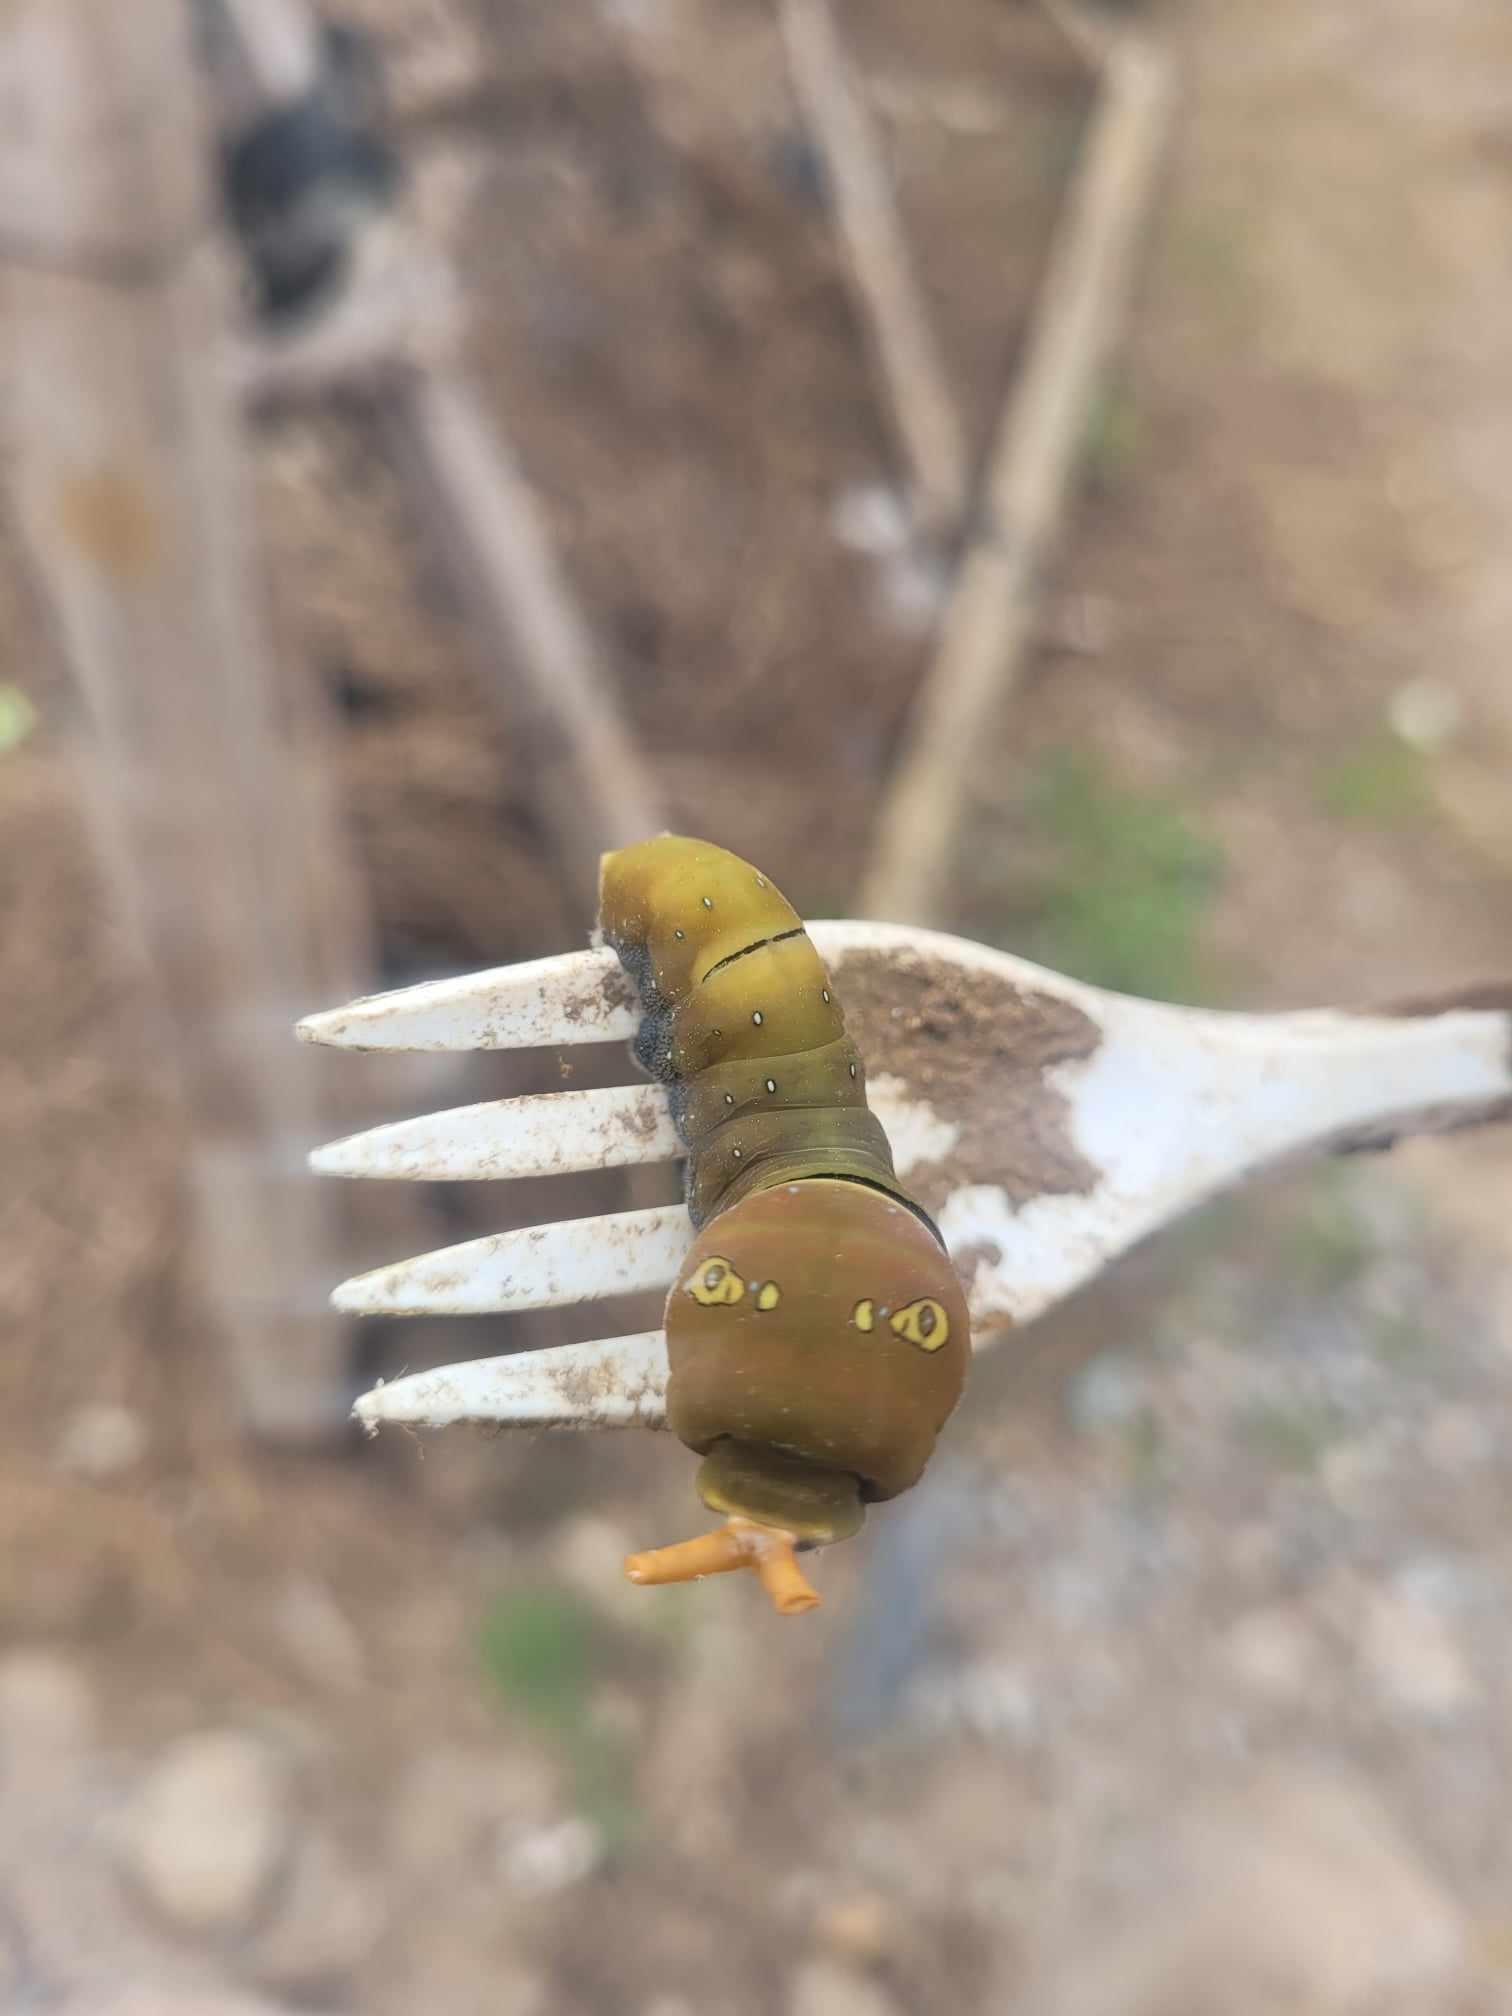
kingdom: Animalia
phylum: Arthropoda
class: Insecta
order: Lepidoptera
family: Papilionidae
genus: Papilio
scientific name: Papilio multicaudata
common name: Two-tailed tiger swallowtail
